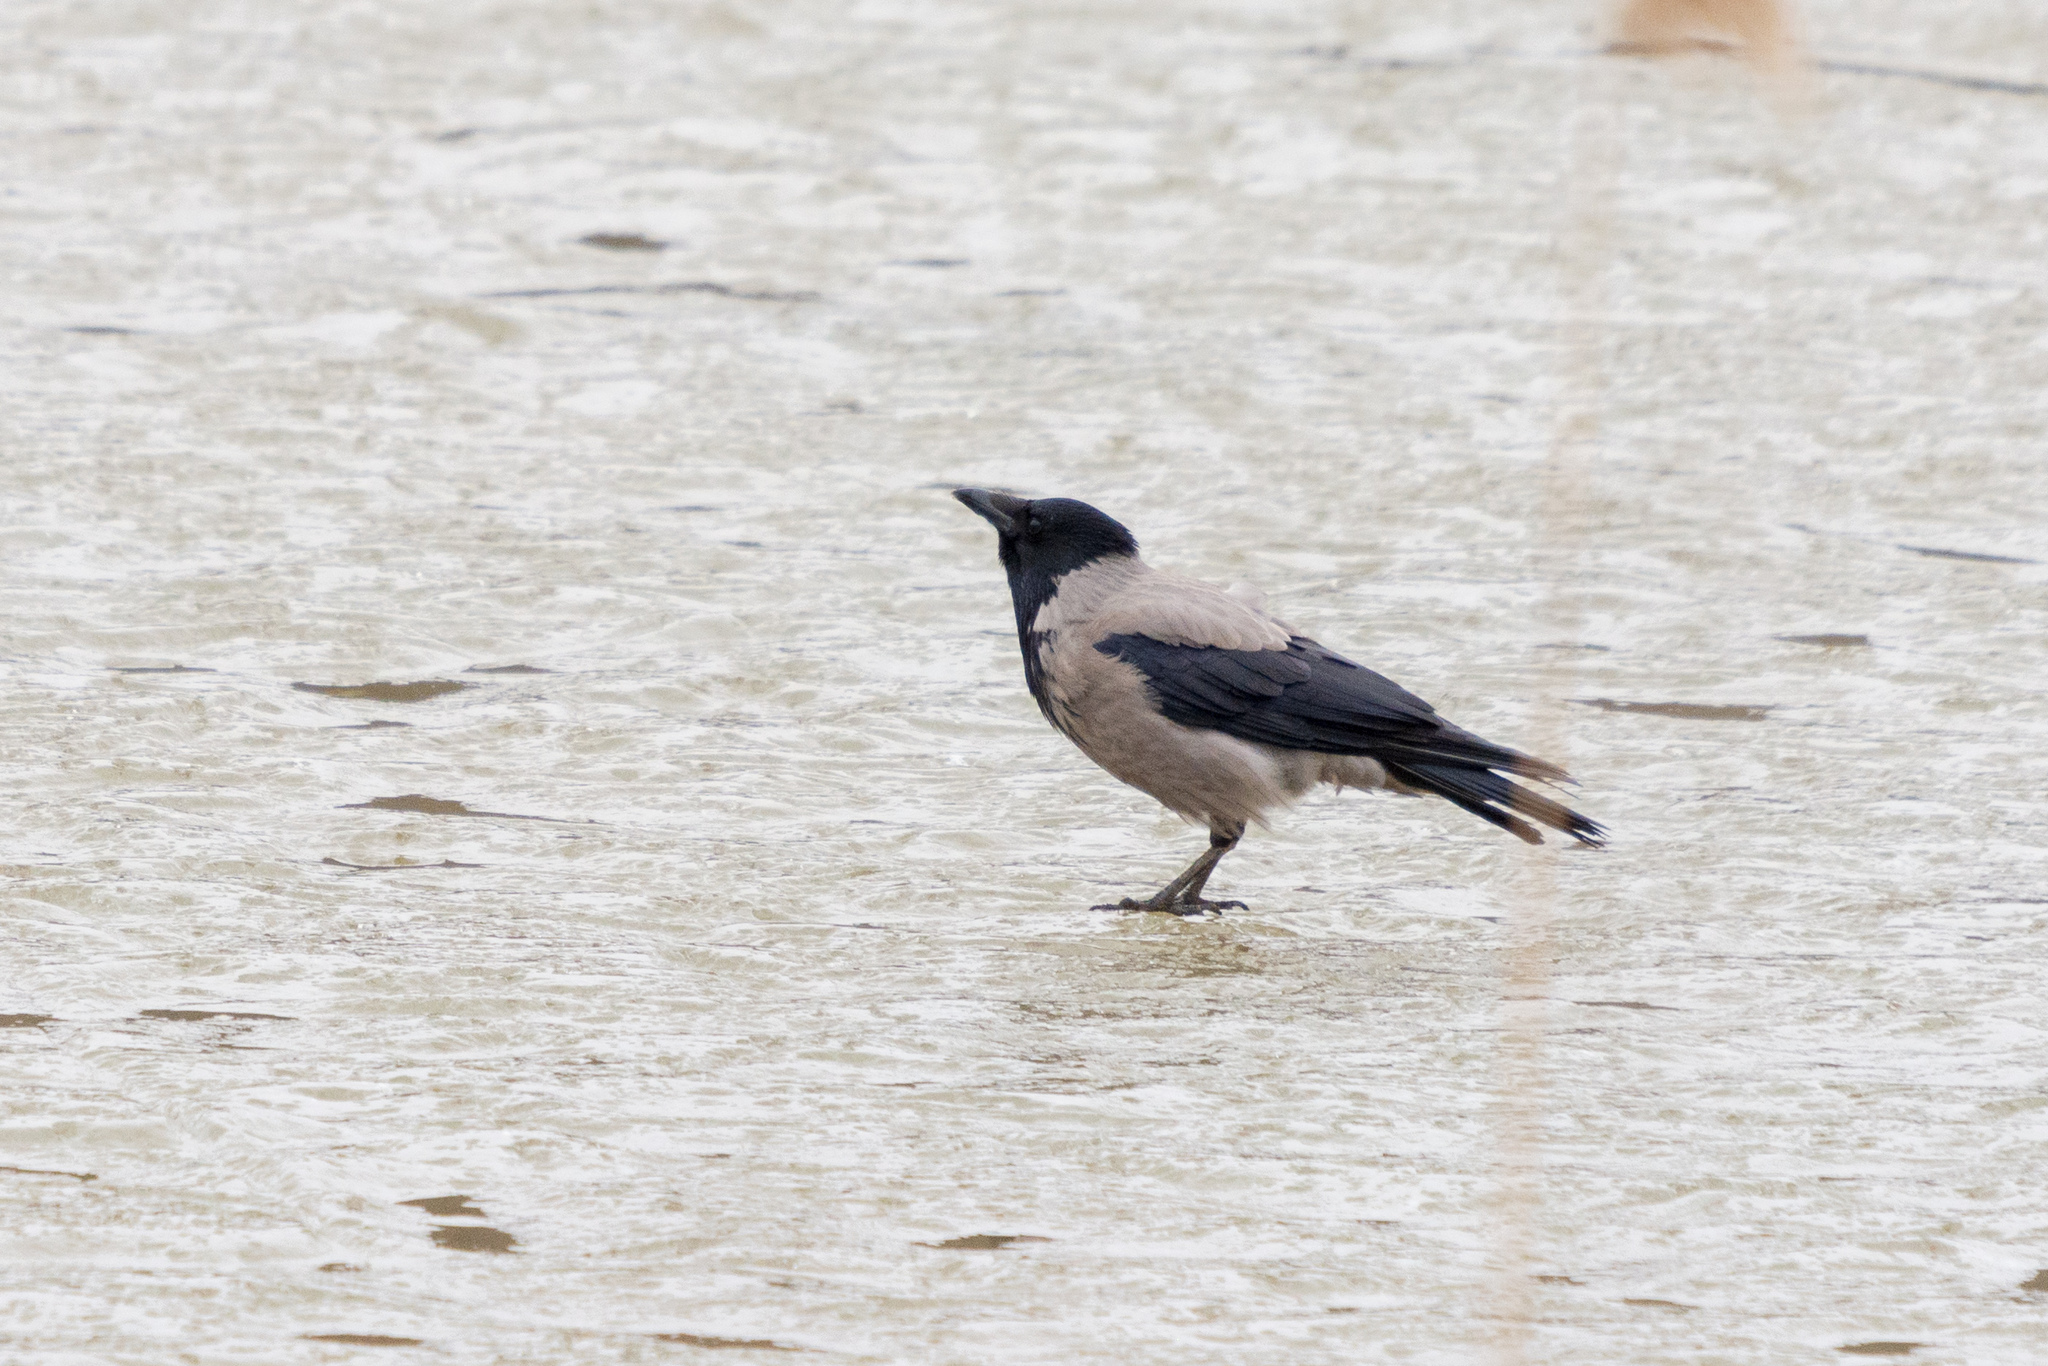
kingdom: Animalia
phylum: Chordata
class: Aves
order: Passeriformes
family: Corvidae
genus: Corvus
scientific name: Corvus cornix
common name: Hooded crow
